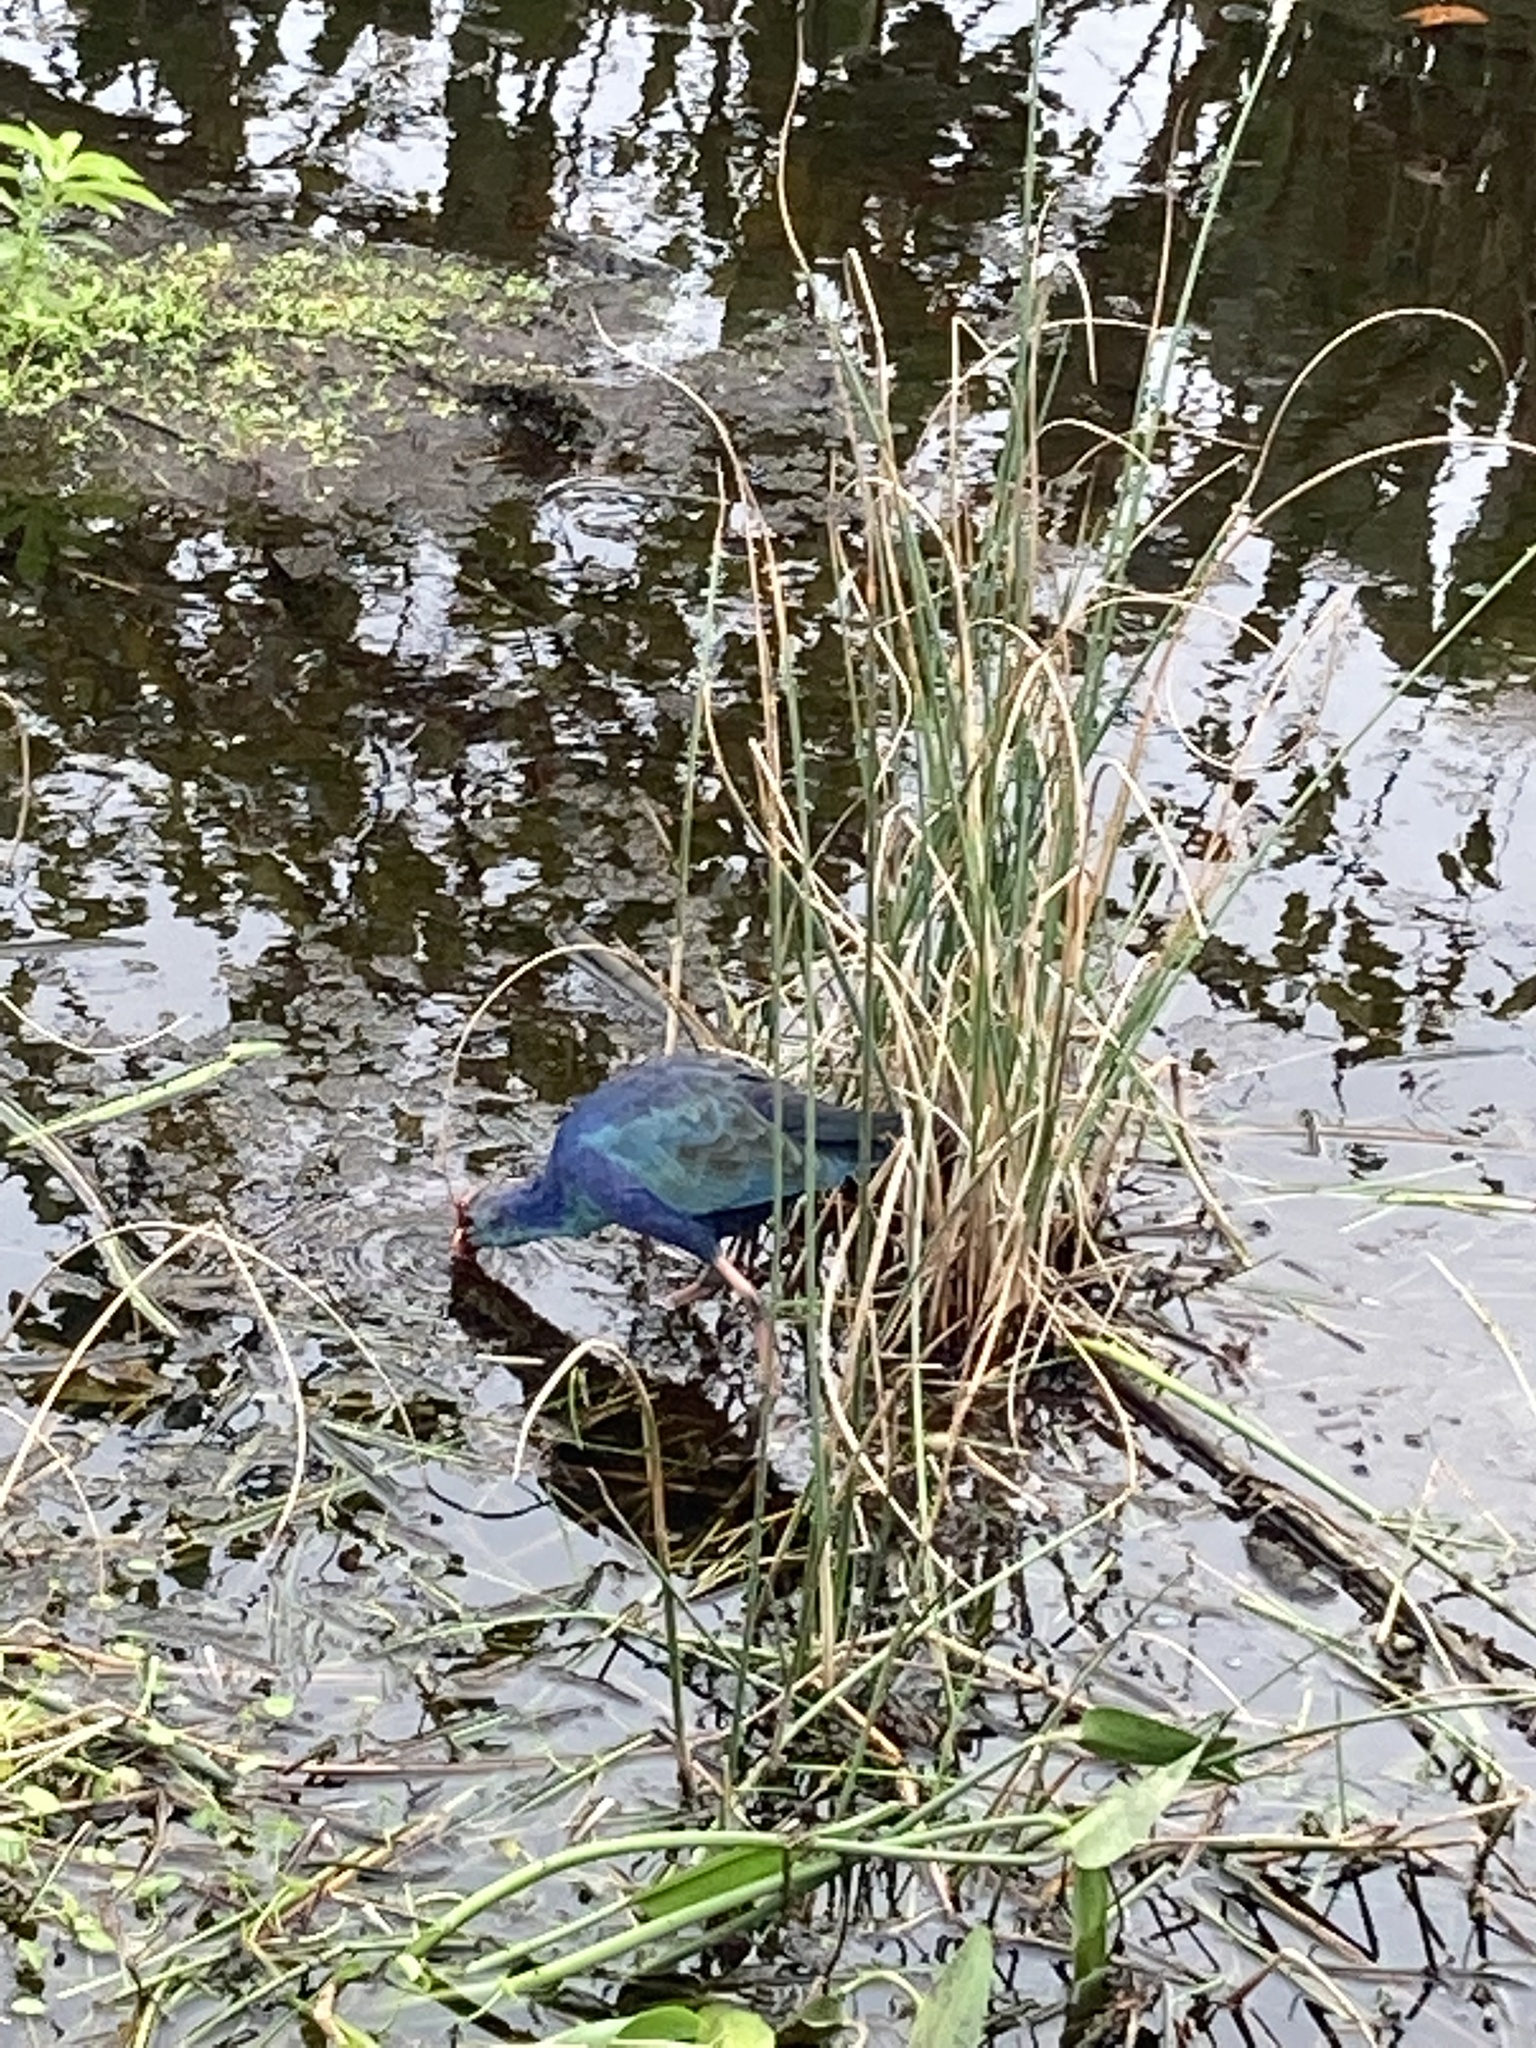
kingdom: Animalia
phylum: Chordata
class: Aves
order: Gruiformes
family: Rallidae
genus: Porphyrio
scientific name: Porphyrio porphyrio
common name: Purple swamphen
